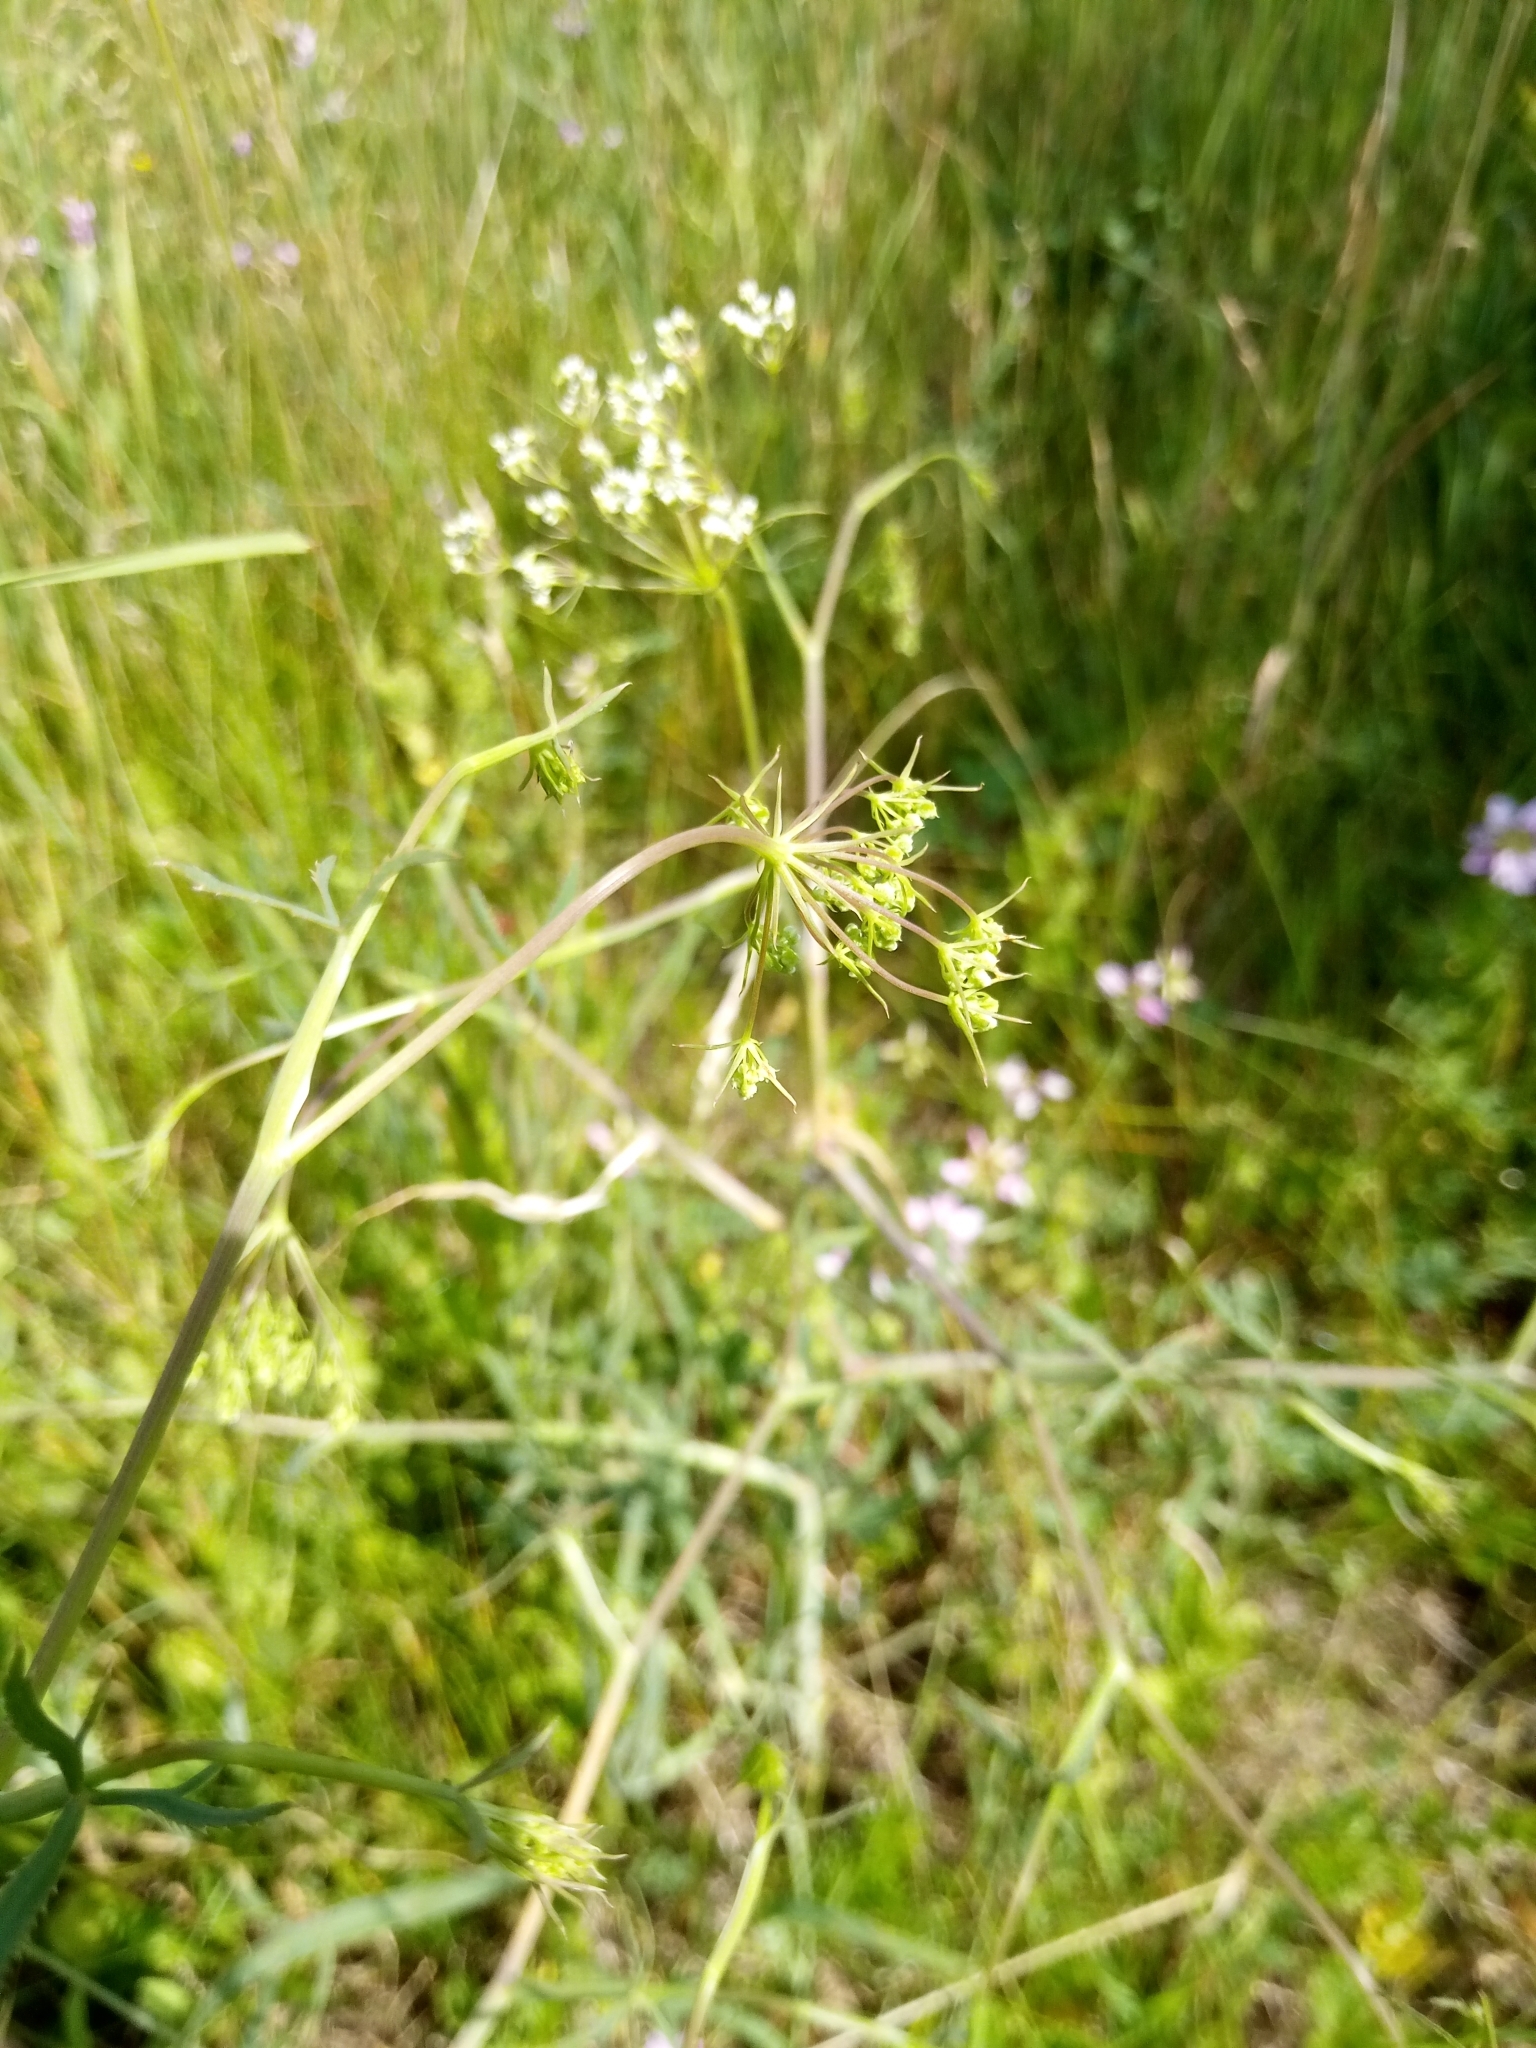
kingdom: Plantae
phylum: Tracheophyta
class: Magnoliopsida
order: Apiales
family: Apiaceae
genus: Falcaria
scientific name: Falcaria vulgaris
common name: Longleaf
